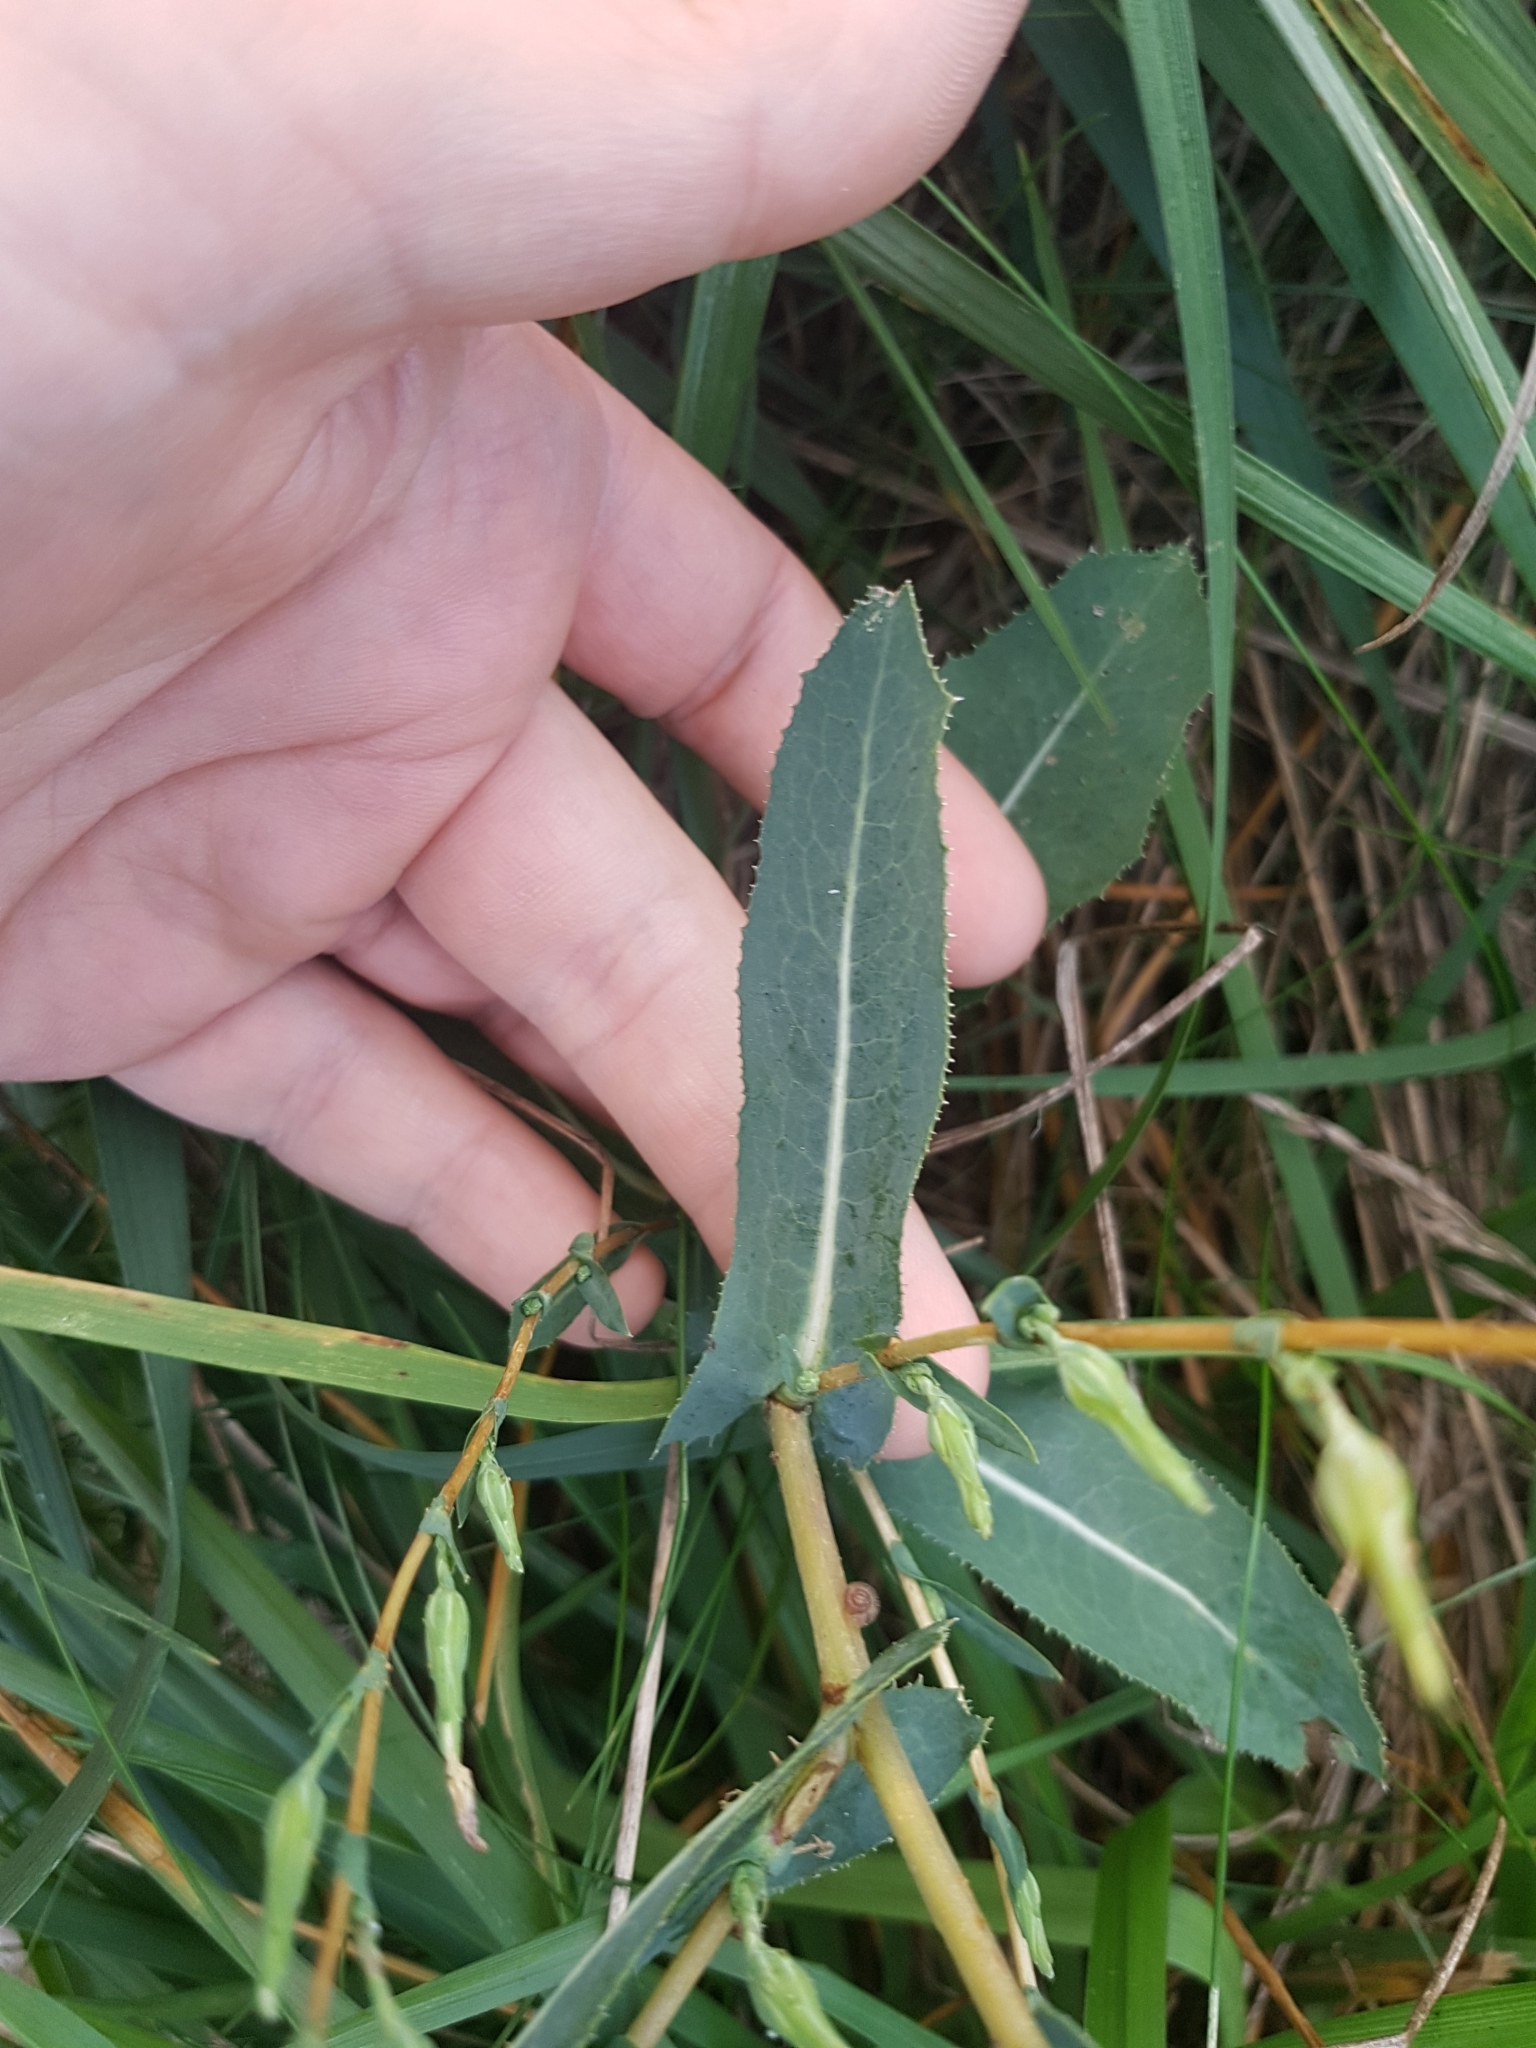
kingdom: Plantae
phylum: Tracheophyta
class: Magnoliopsida
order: Asterales
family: Asteraceae
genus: Lactuca
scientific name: Lactuca serriola
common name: Prickly lettuce
